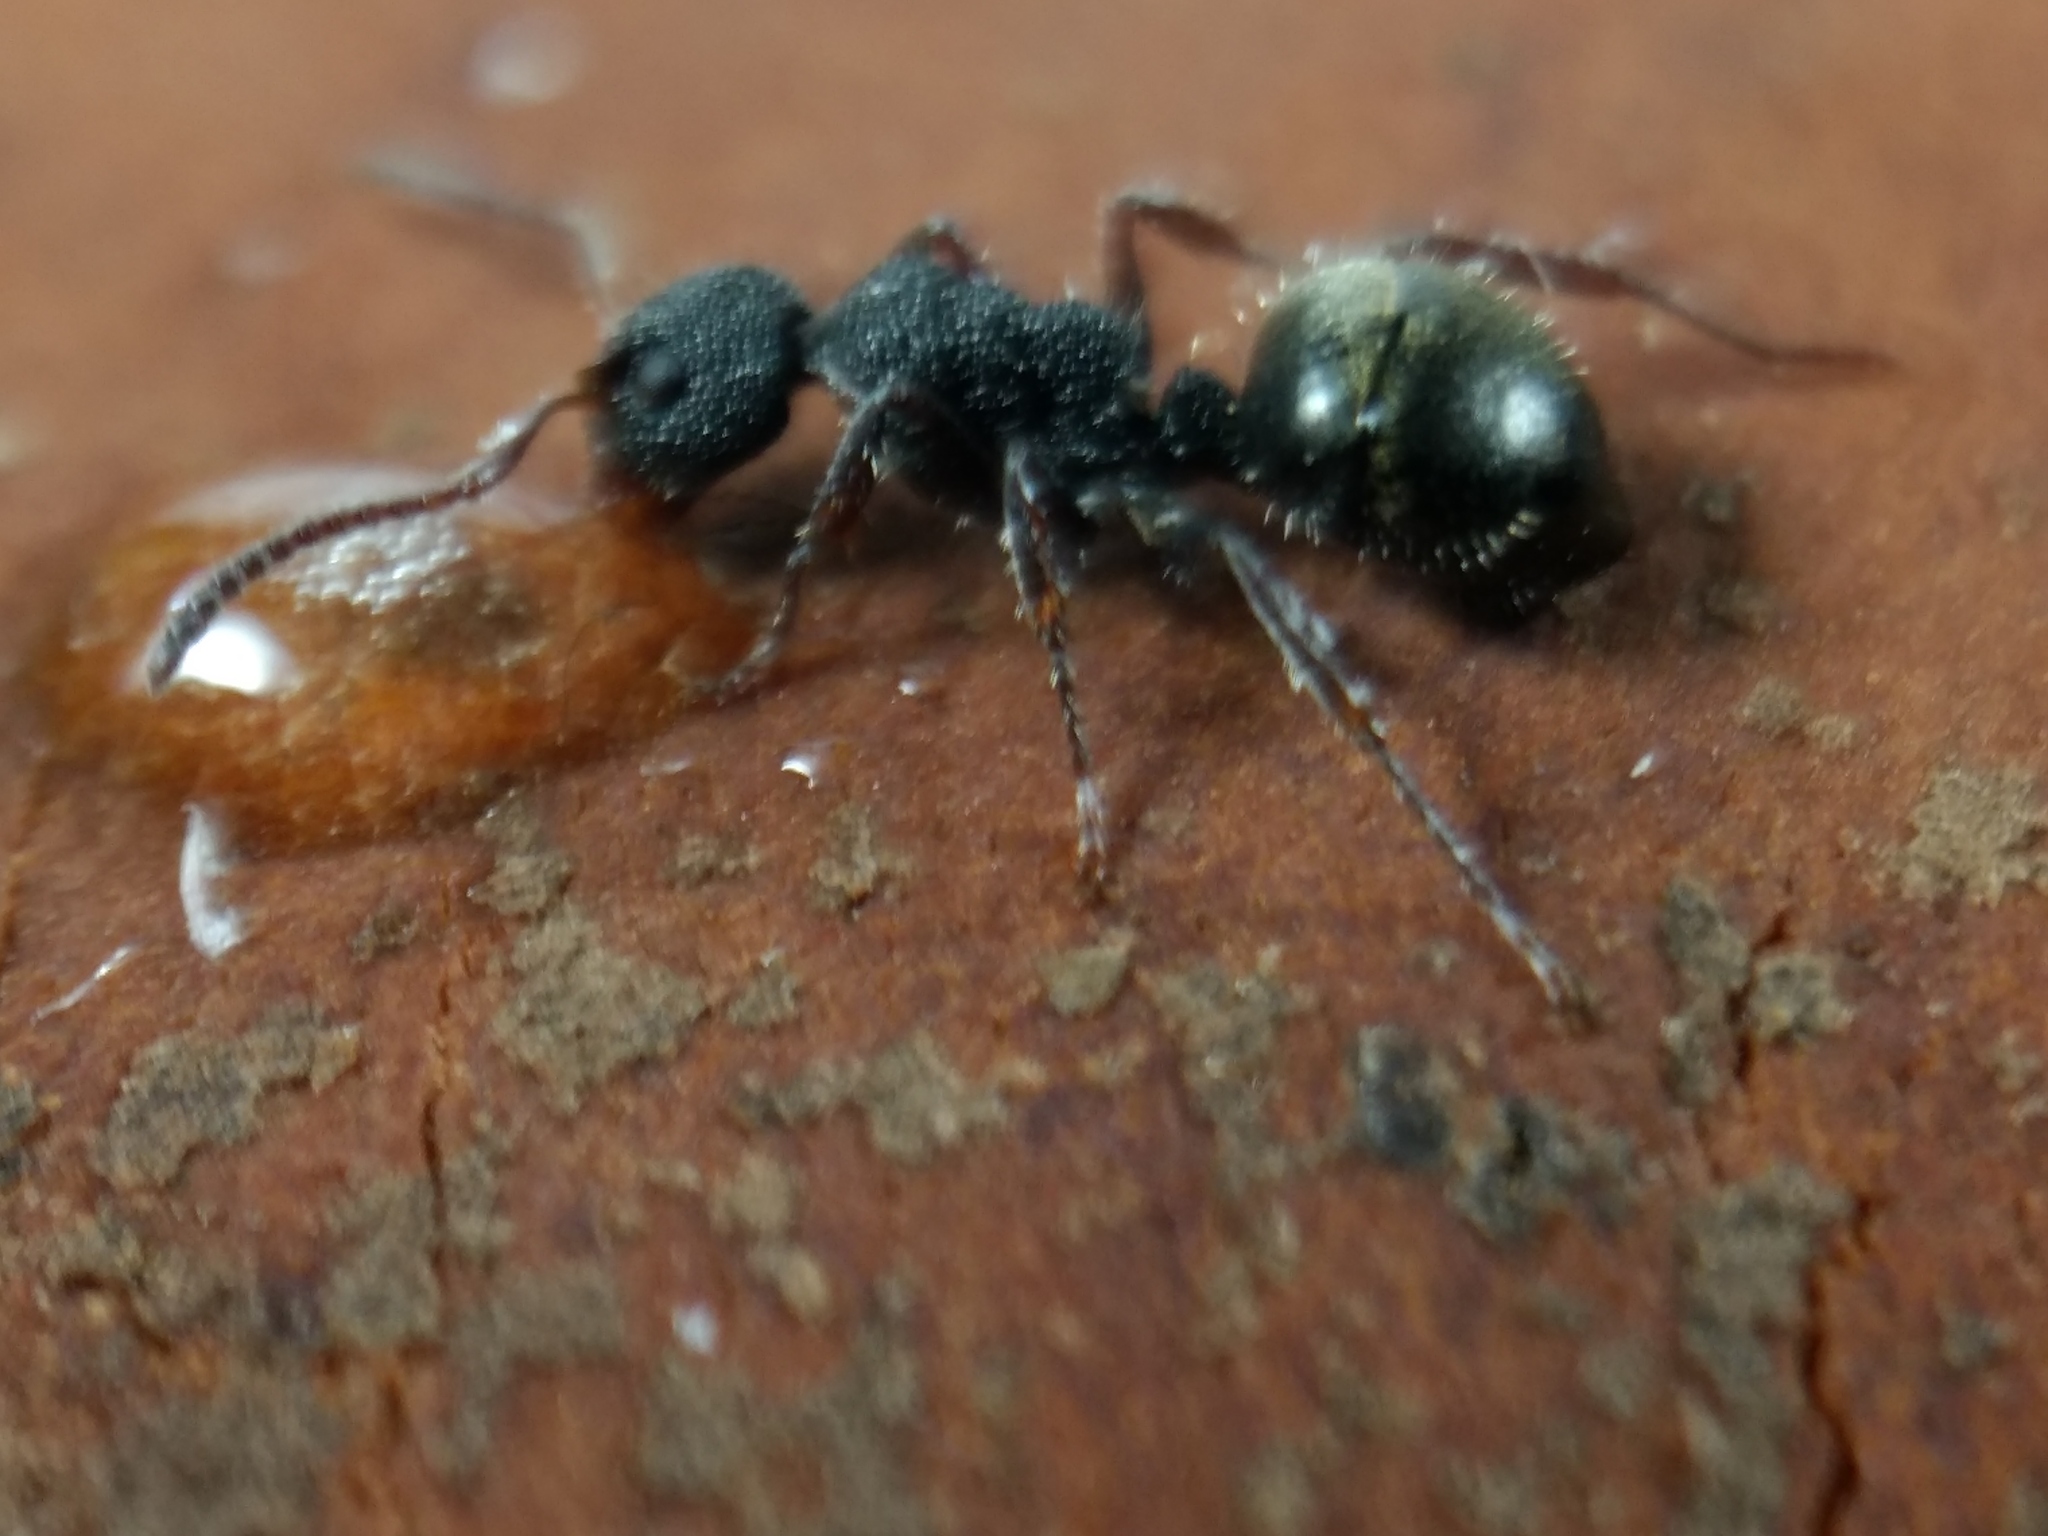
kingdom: Animalia
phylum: Arthropoda
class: Insecta
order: Hymenoptera
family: Formicidae
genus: Dolichoderus
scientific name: Dolichoderus scrobiculatus
